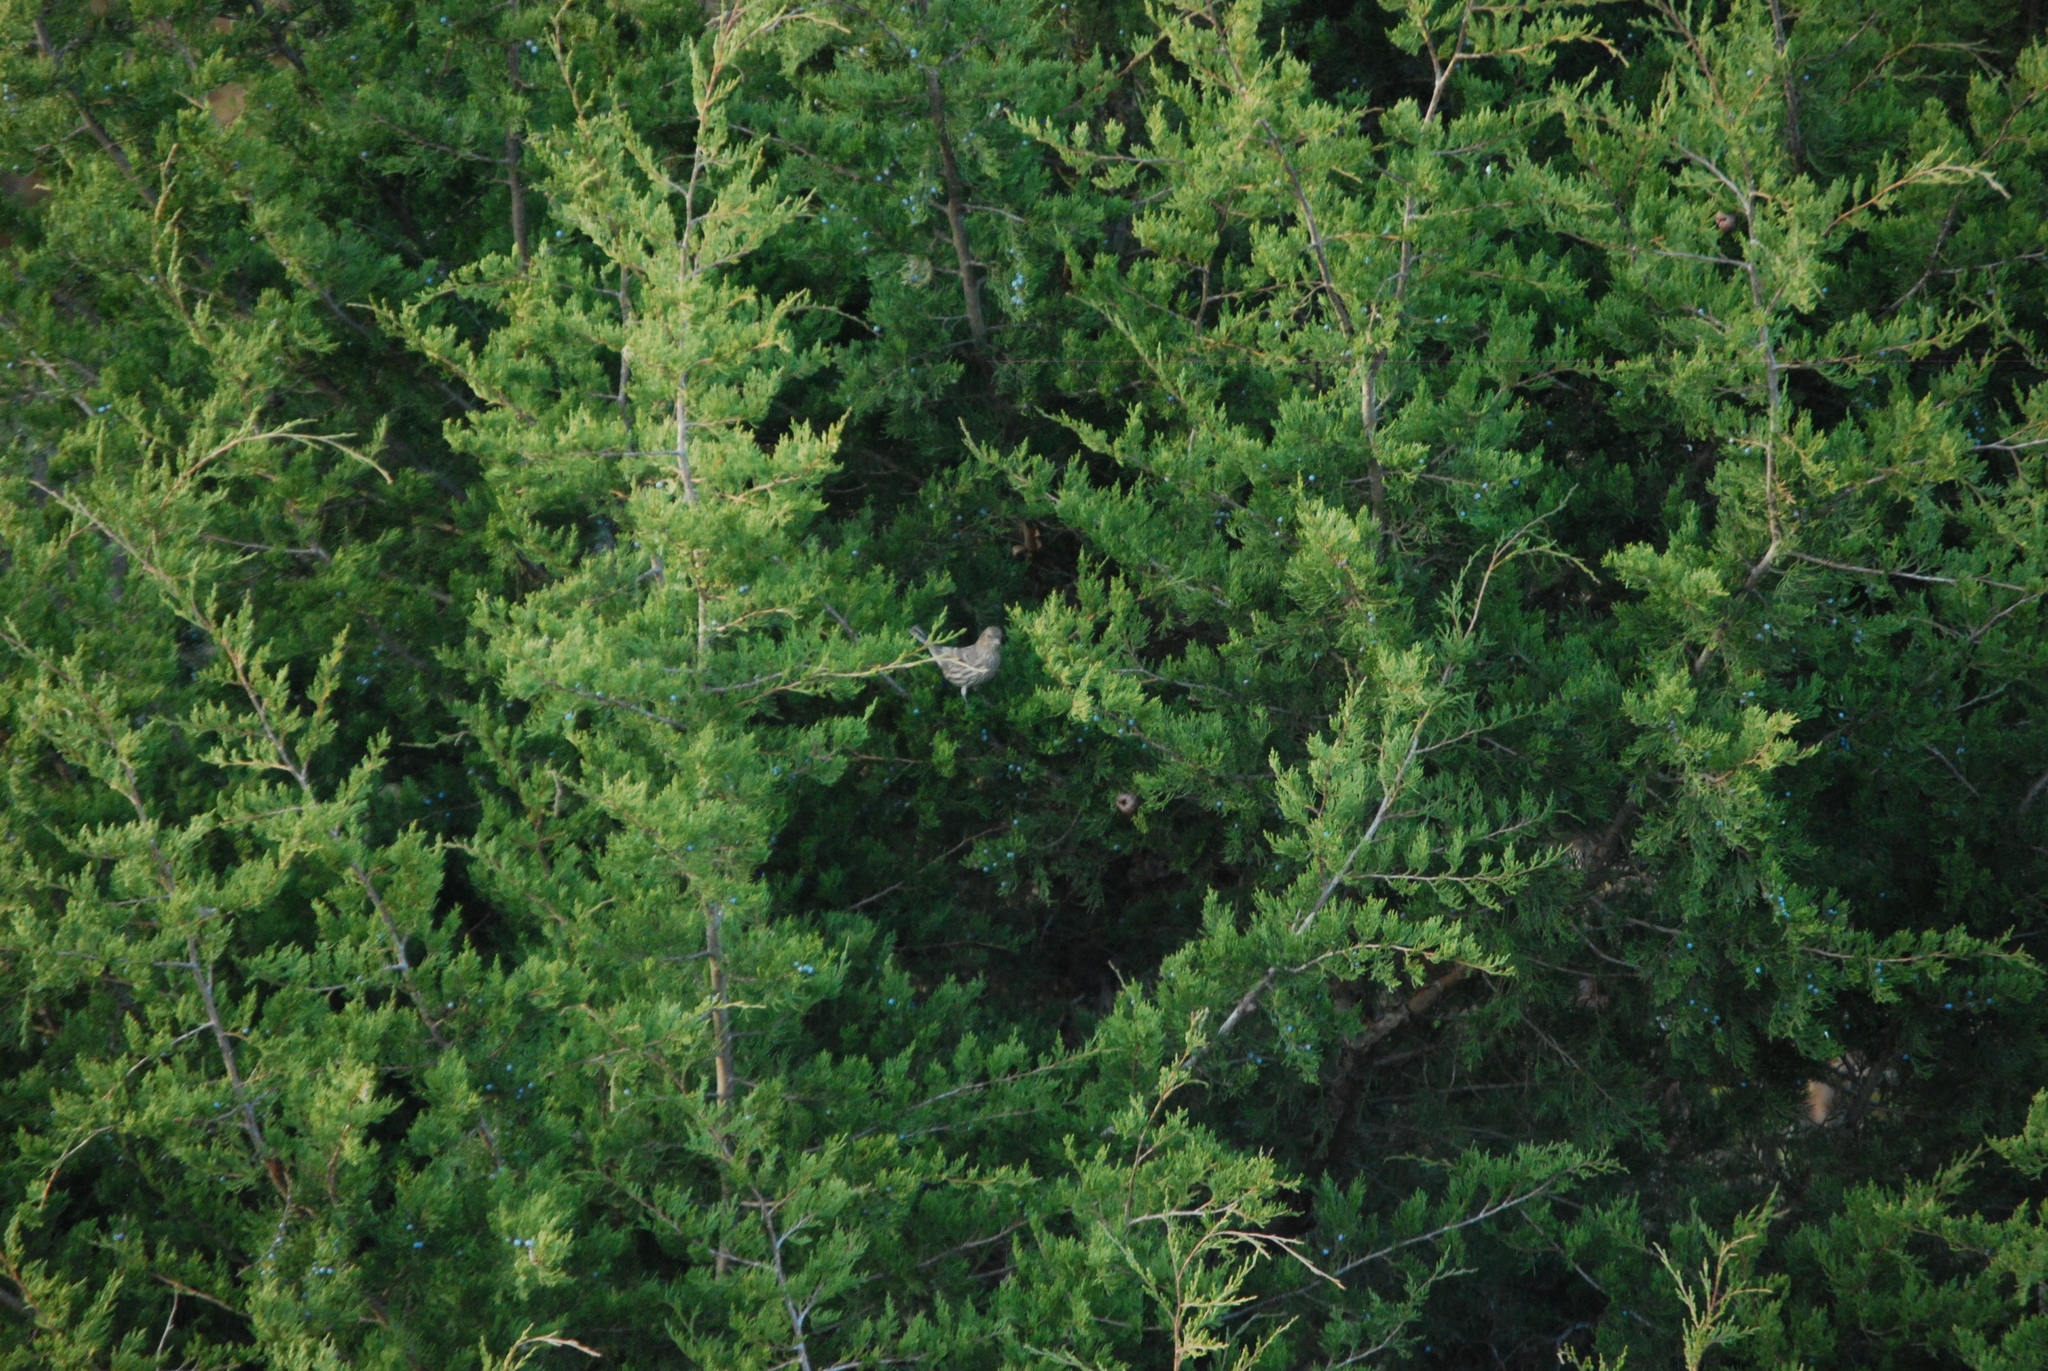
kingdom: Animalia
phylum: Chordata
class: Aves
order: Passeriformes
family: Fringillidae
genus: Haemorhous
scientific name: Haemorhous mexicanus
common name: House finch
